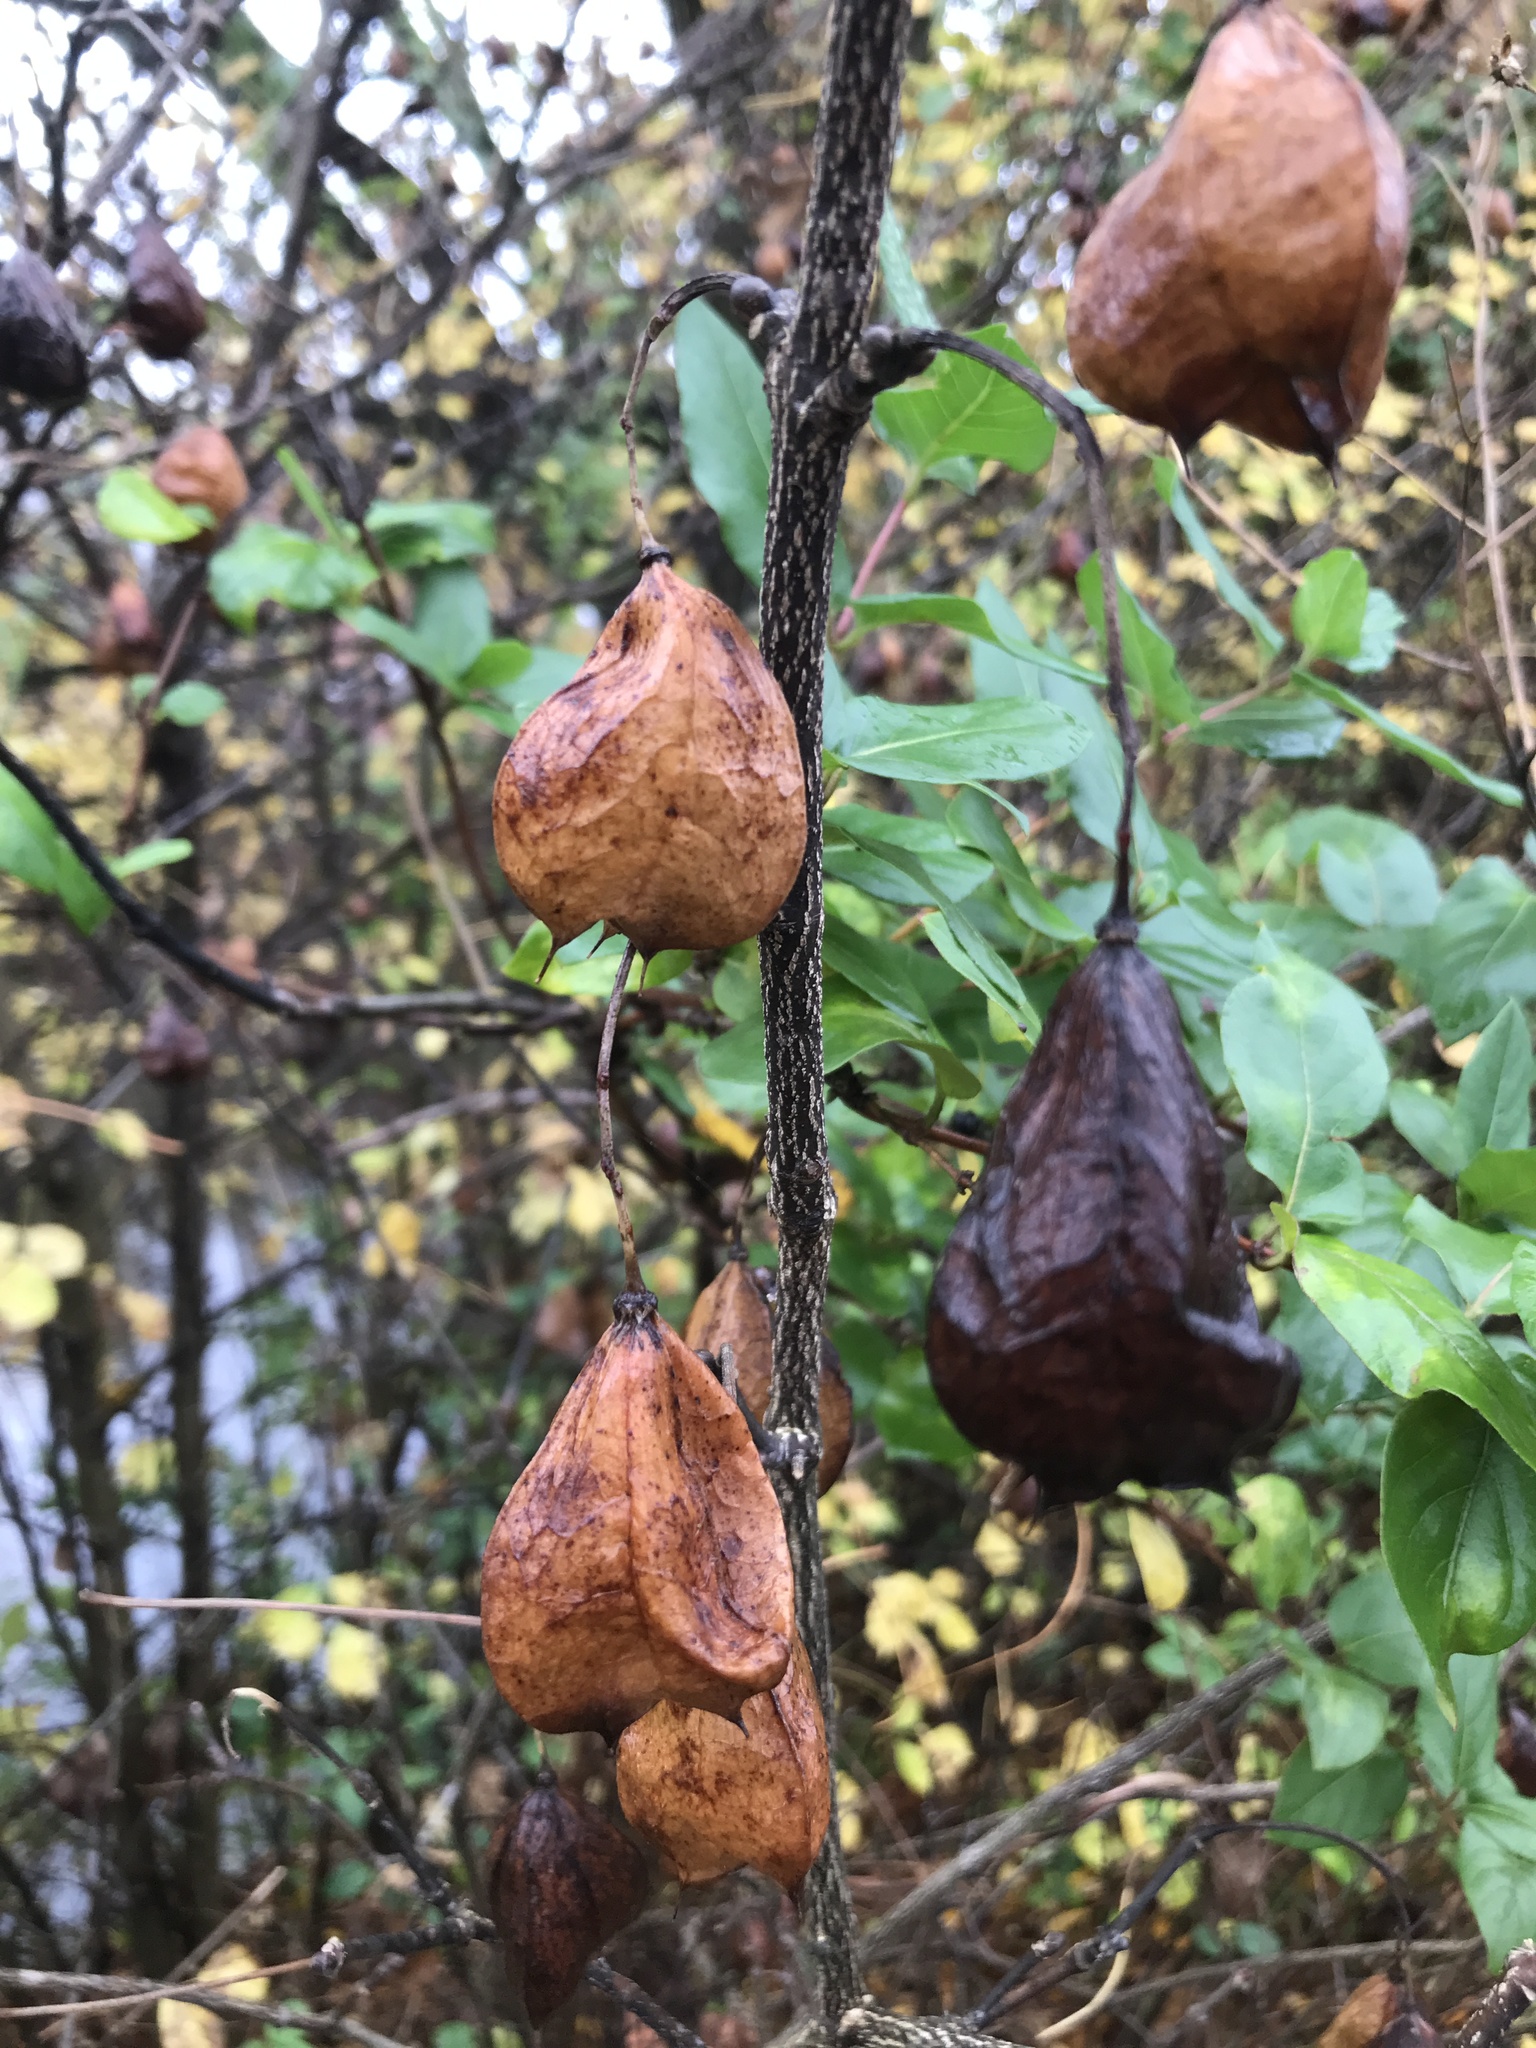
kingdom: Plantae
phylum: Tracheophyta
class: Magnoliopsida
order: Crossosomatales
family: Staphyleaceae
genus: Staphylea
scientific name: Staphylea trifolia
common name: American bladdernut
